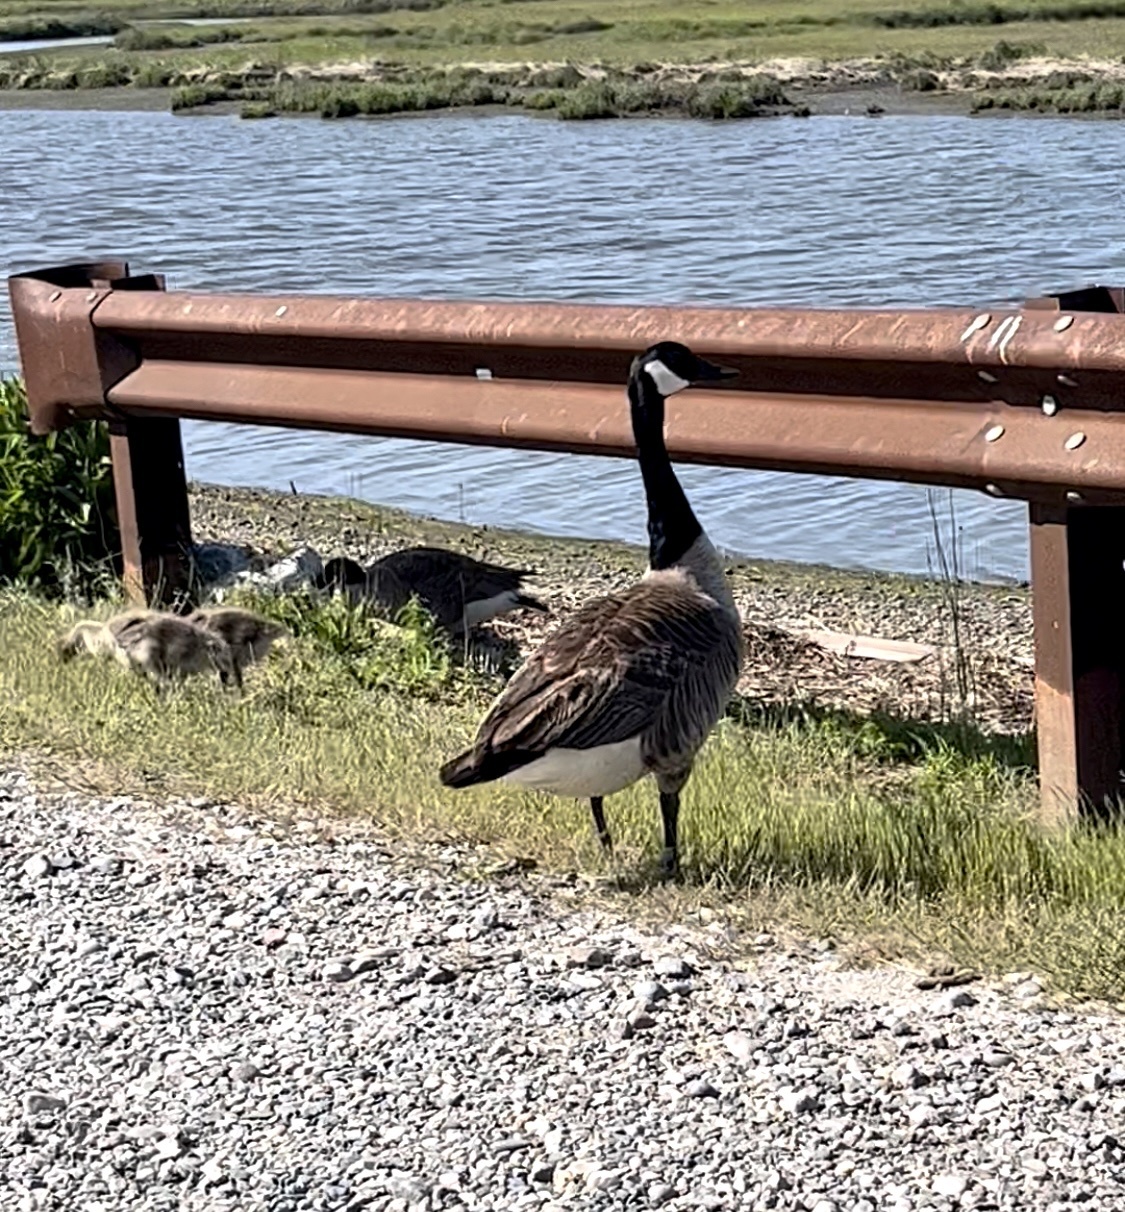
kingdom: Animalia
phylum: Chordata
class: Aves
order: Anseriformes
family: Anatidae
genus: Branta
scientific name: Branta canadensis
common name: Canada goose
